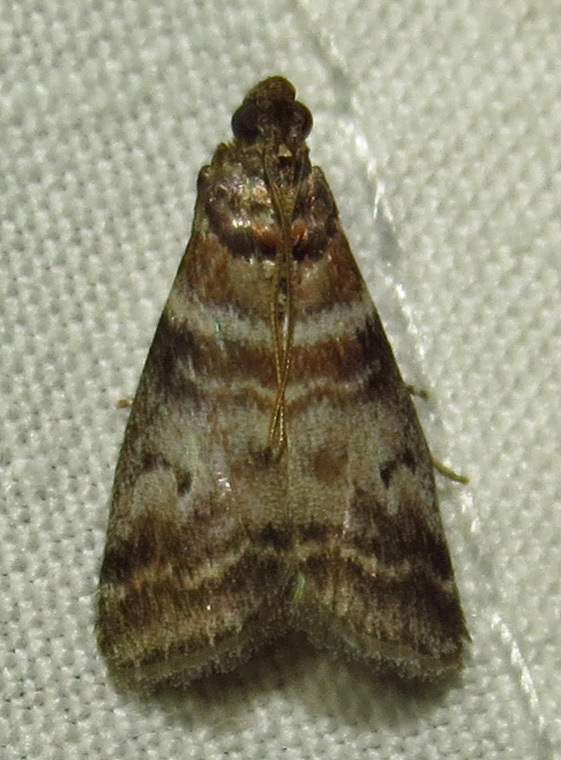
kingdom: Animalia
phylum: Arthropoda
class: Insecta
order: Lepidoptera
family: Pyralidae
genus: Sciota
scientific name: Sciota uvinella
